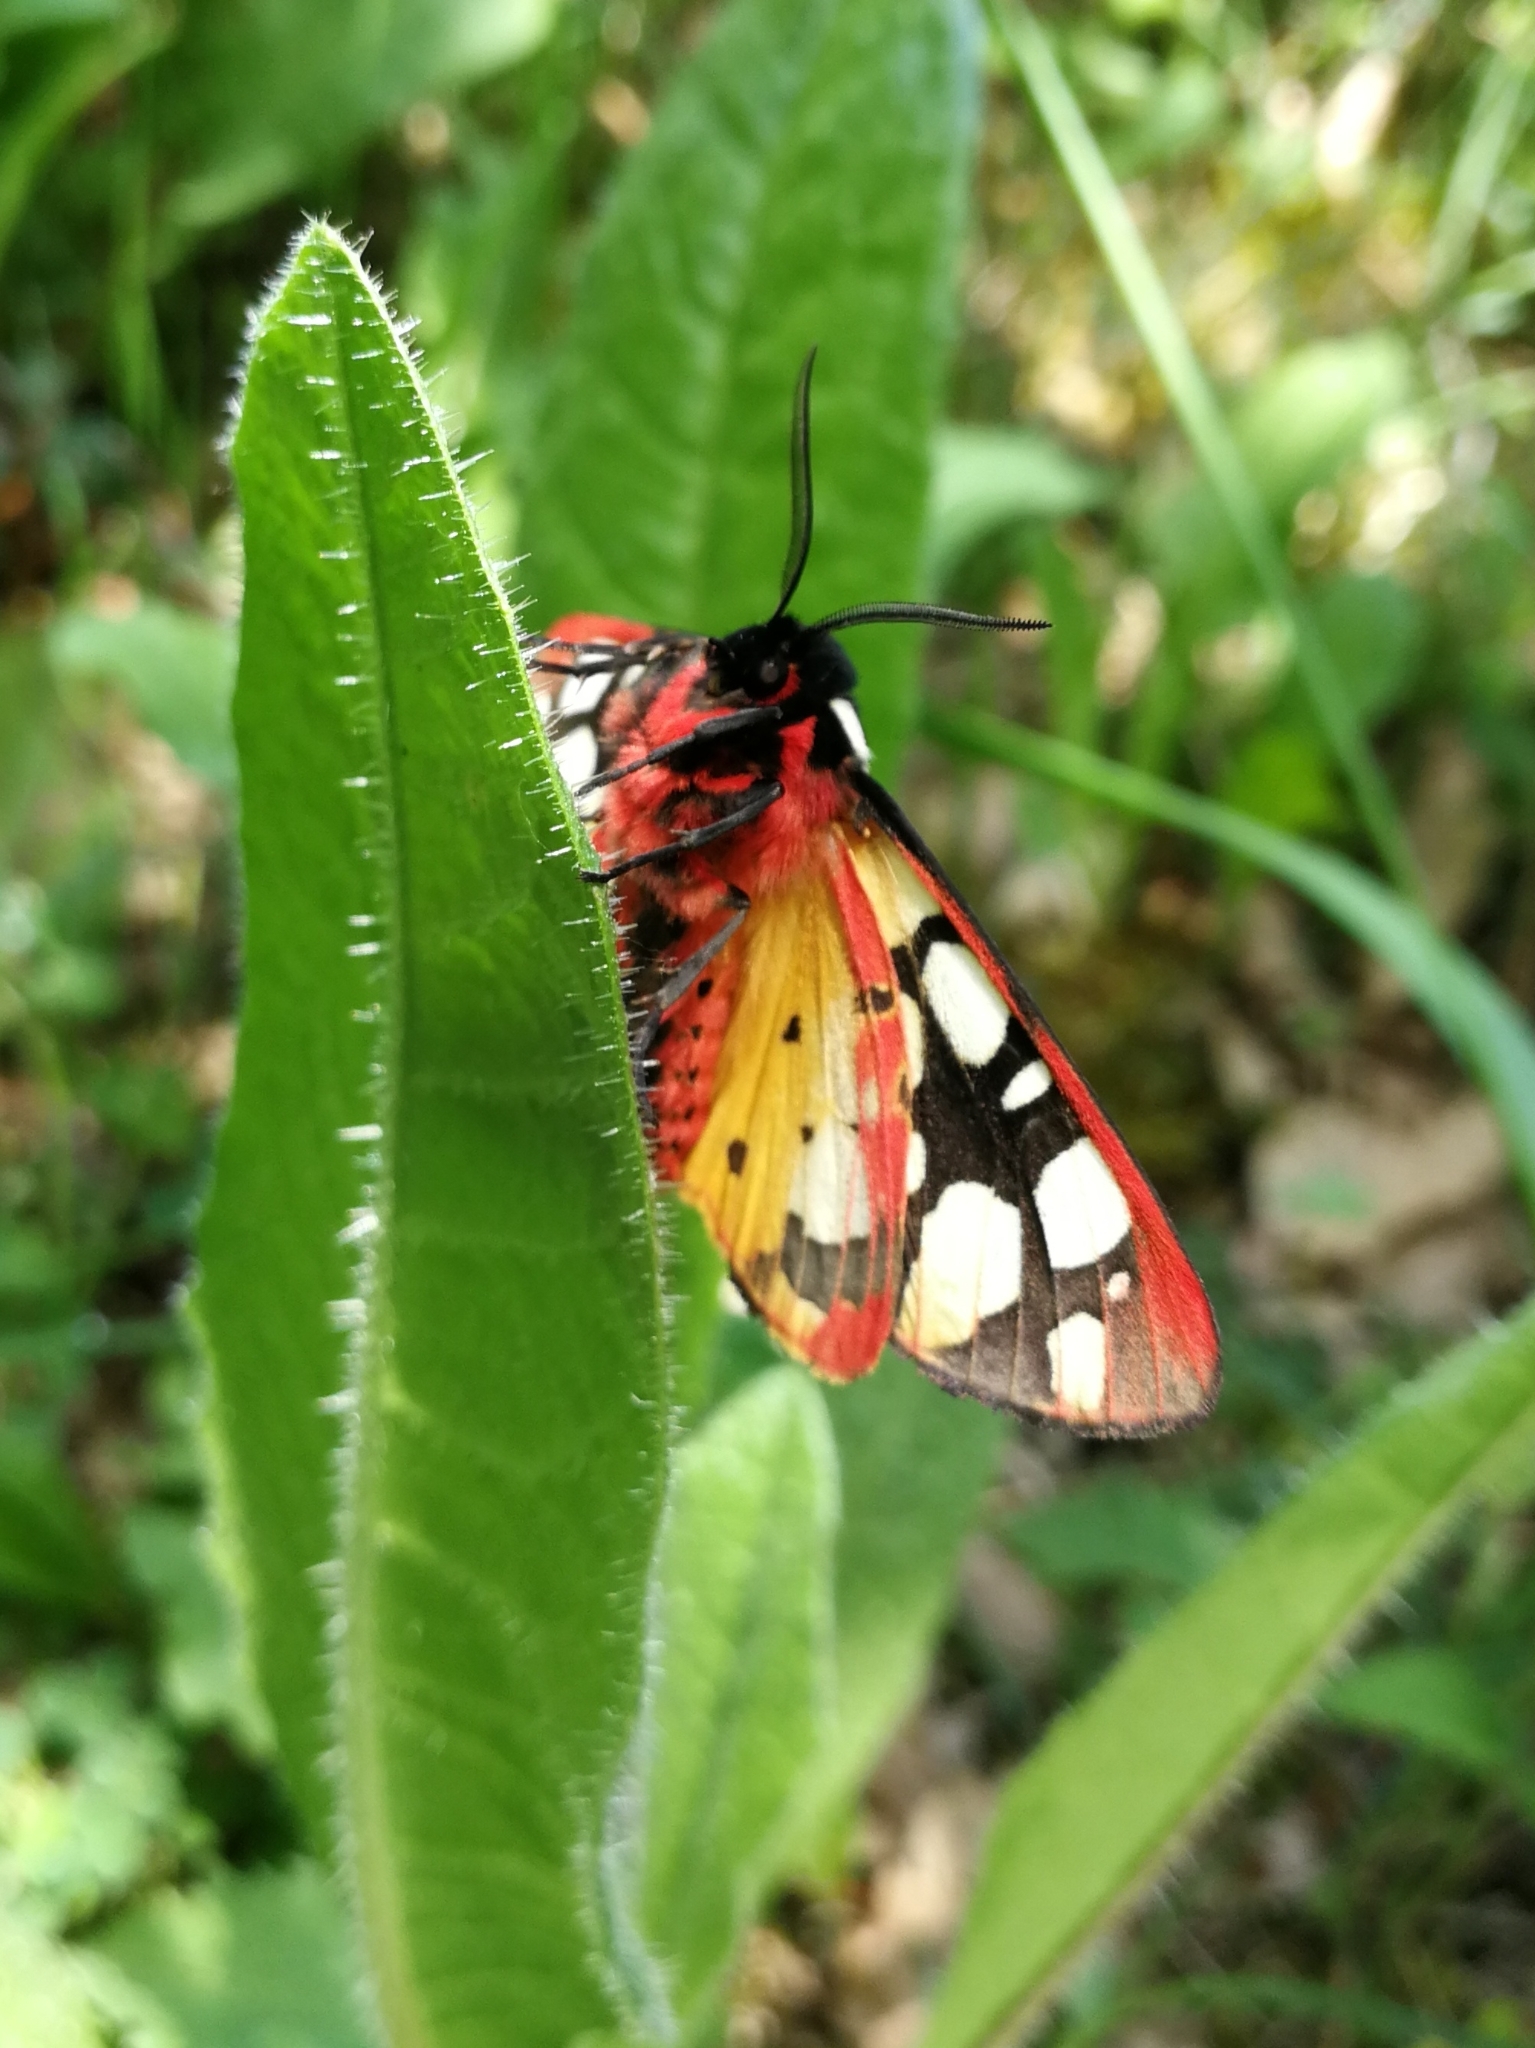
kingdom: Animalia
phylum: Arthropoda
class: Insecta
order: Lepidoptera
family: Erebidae
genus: Epicallia
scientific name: Epicallia villica
